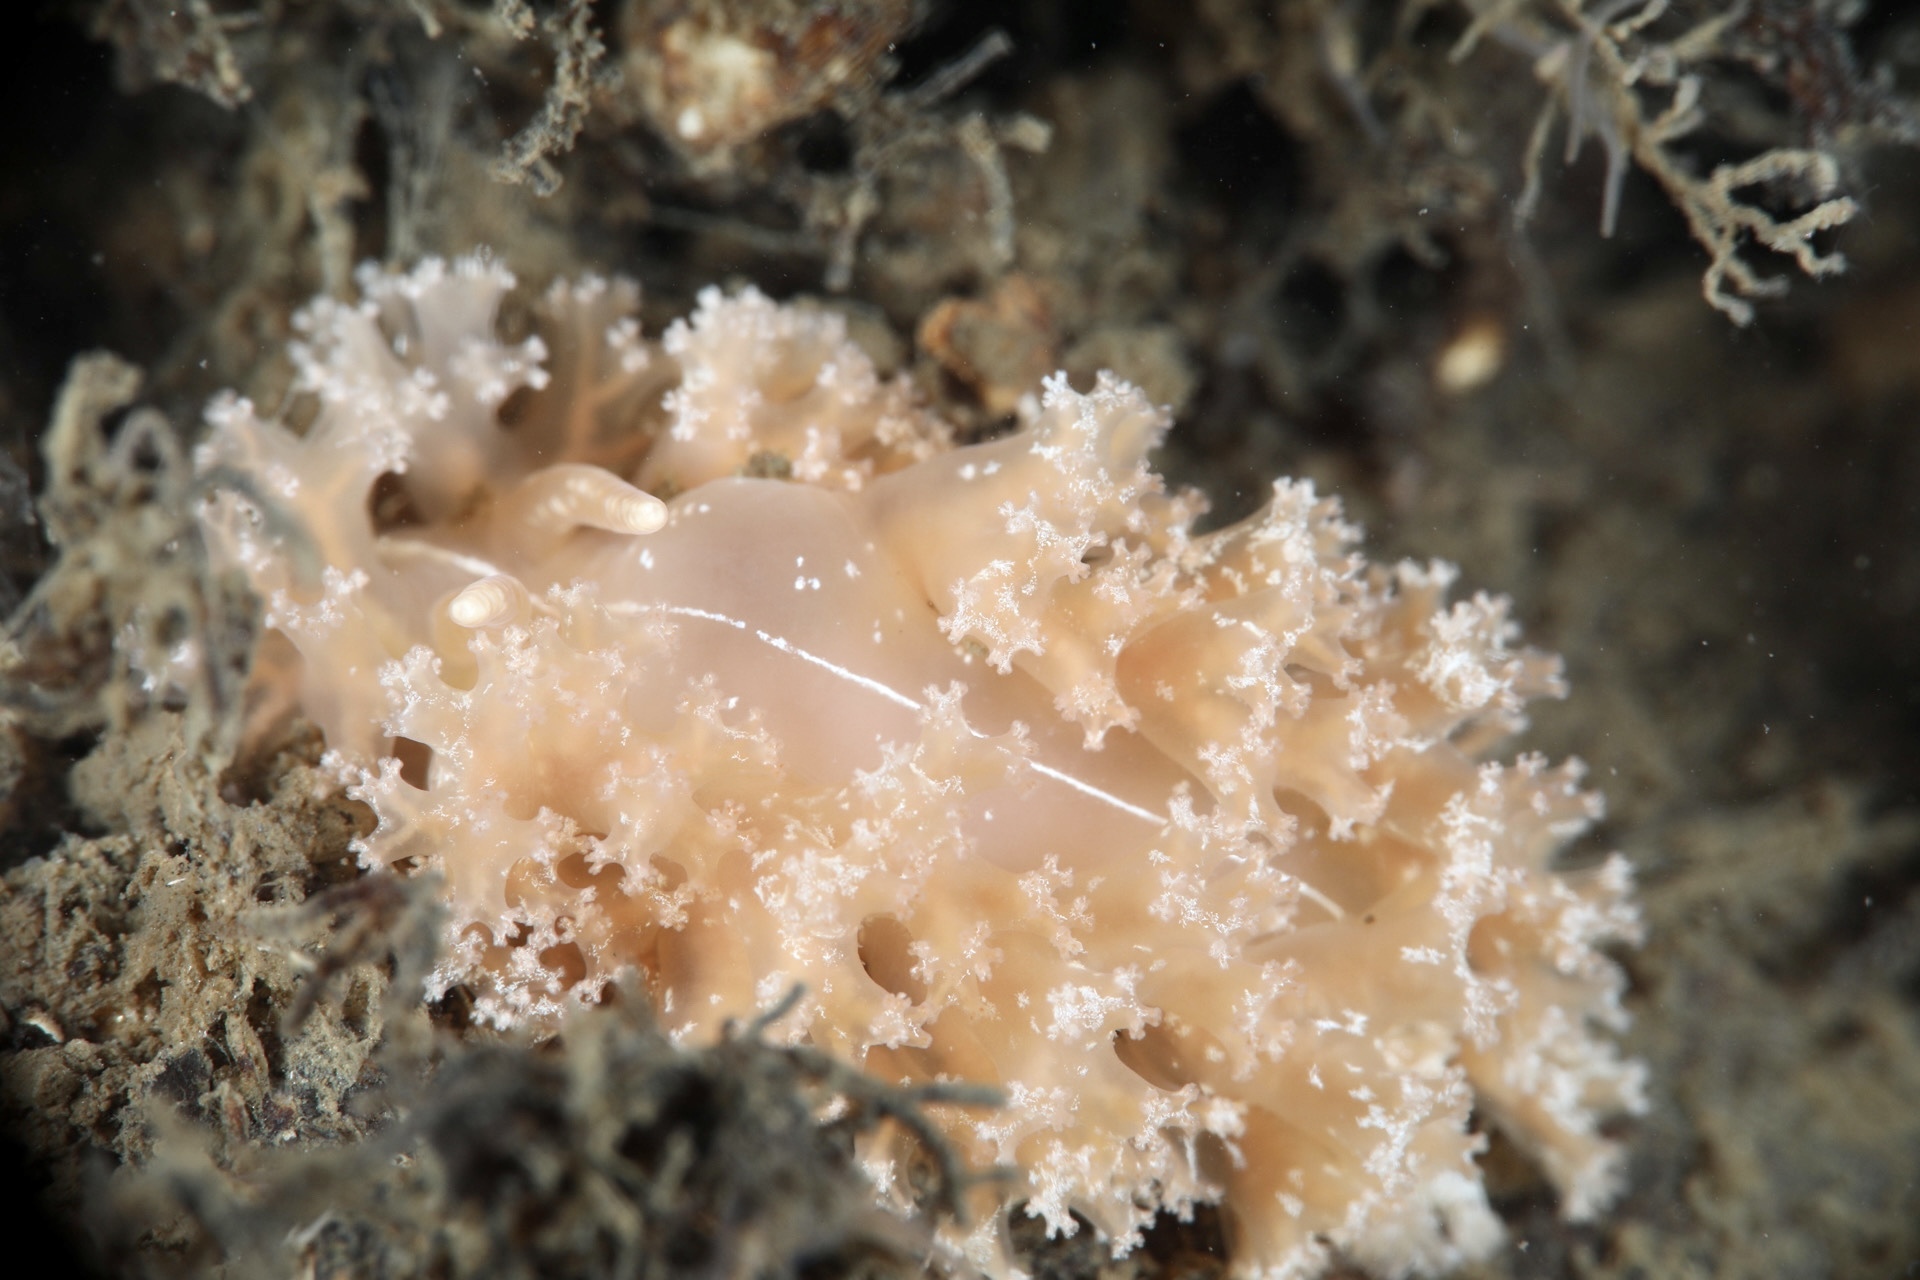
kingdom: Animalia
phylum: Mollusca
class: Gastropoda
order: Nudibranchia
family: Heroidae
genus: Hero
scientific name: Hero formosa
